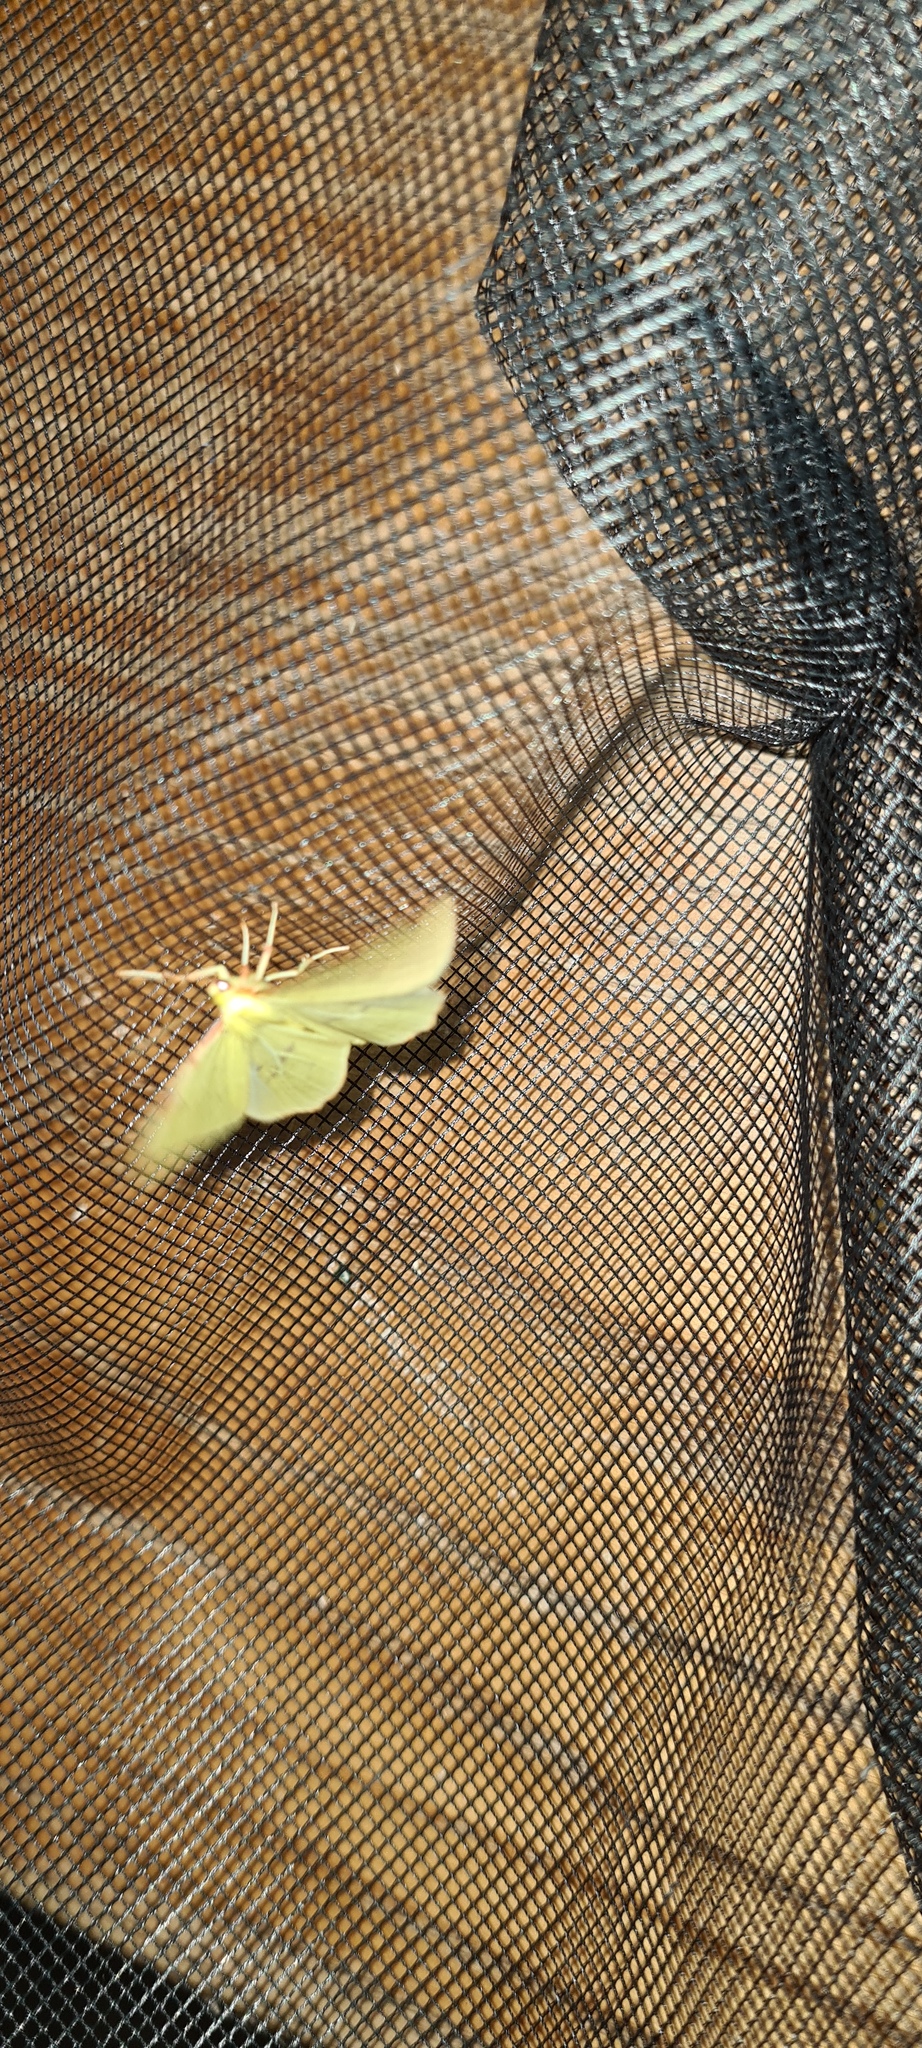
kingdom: Animalia
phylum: Arthropoda
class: Insecta
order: Lepidoptera
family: Geometridae
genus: Opisthograptis
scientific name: Opisthograptis luteolata
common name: Brimstone moth
